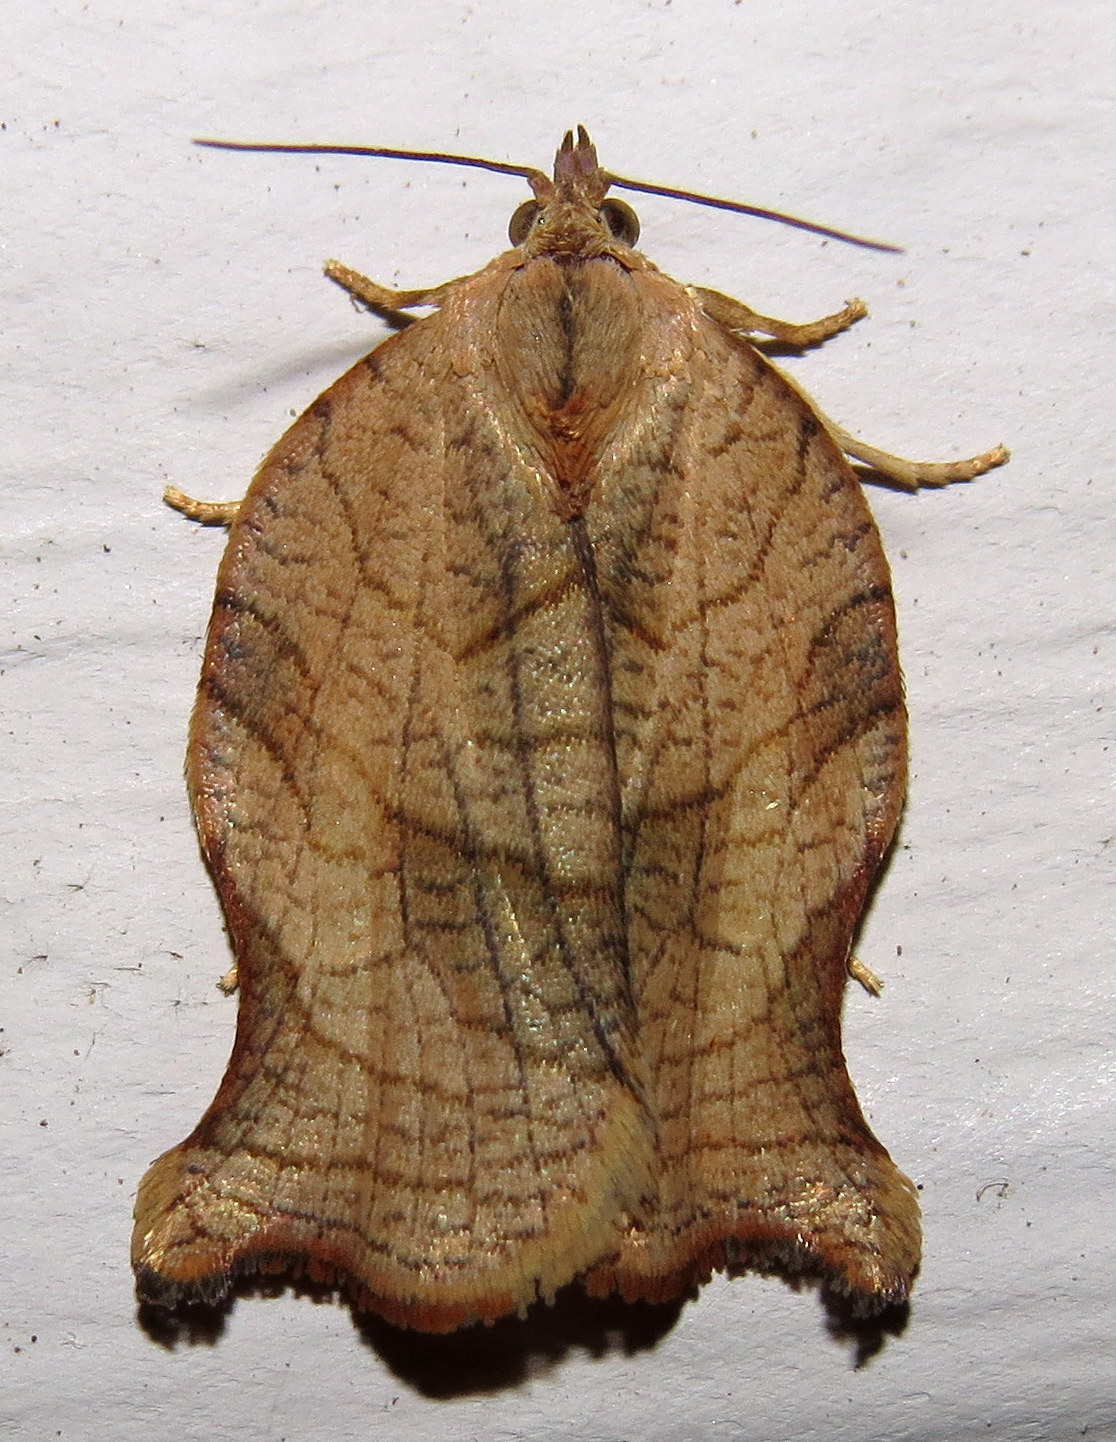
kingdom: Animalia
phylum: Arthropoda
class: Insecta
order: Lepidoptera
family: Tortricidae
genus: Archips
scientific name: Archips purpurana
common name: Omnivorous leafroller
